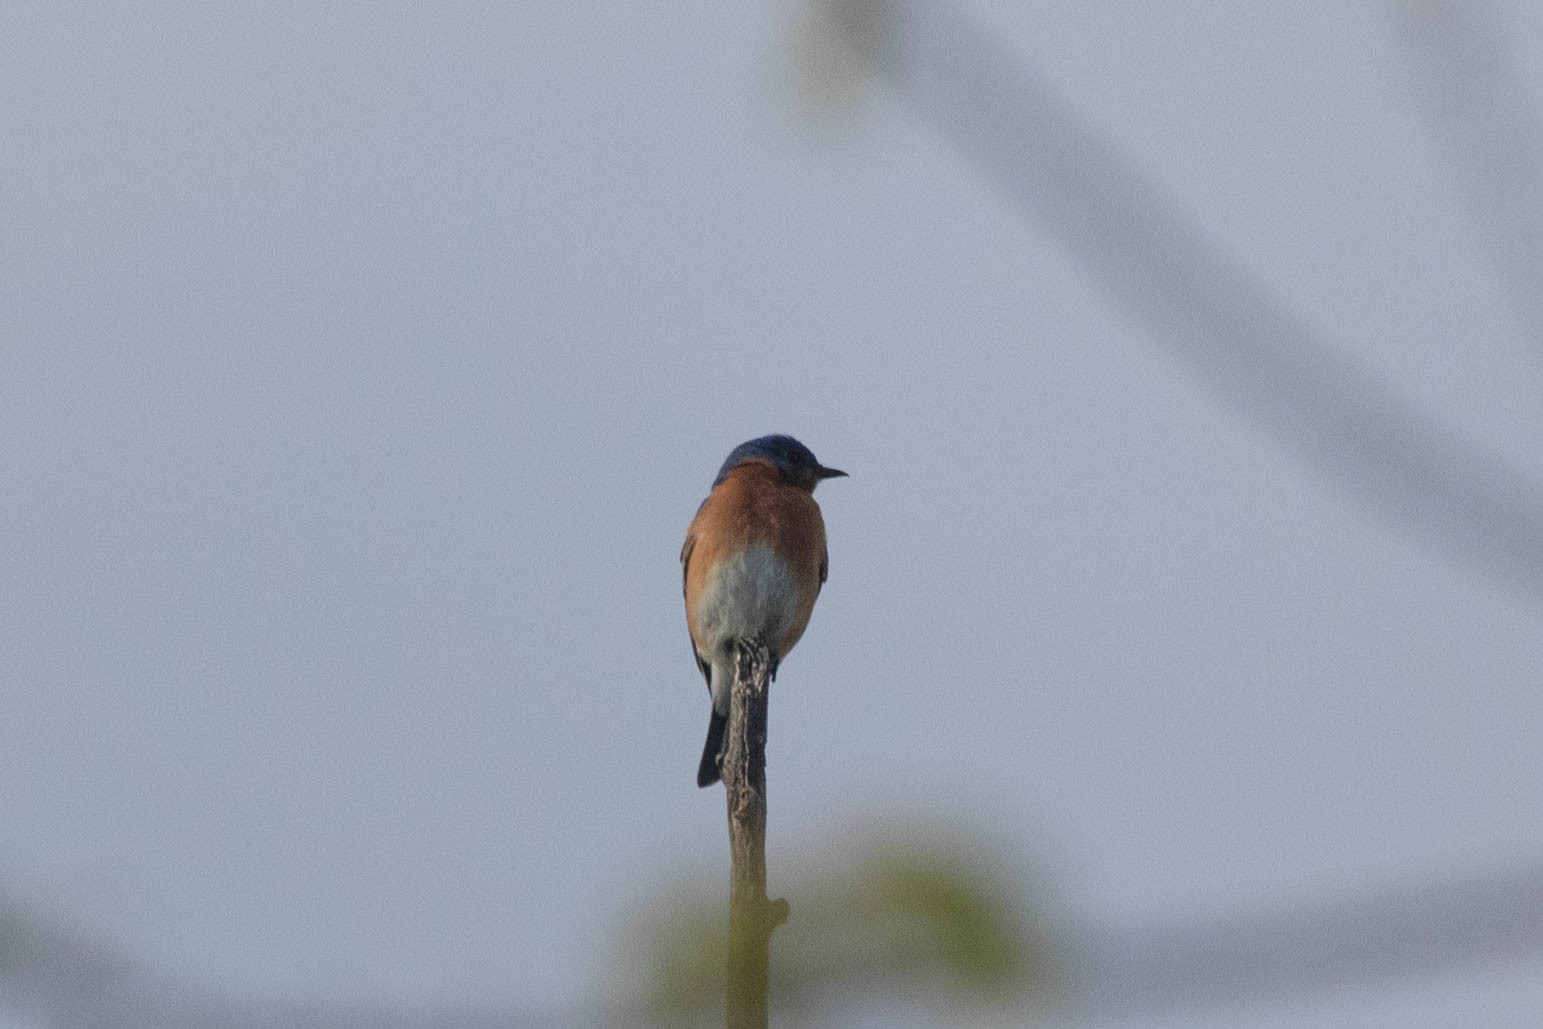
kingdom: Animalia
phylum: Chordata
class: Aves
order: Passeriformes
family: Turdidae
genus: Sialia
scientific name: Sialia sialis
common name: Eastern bluebird
